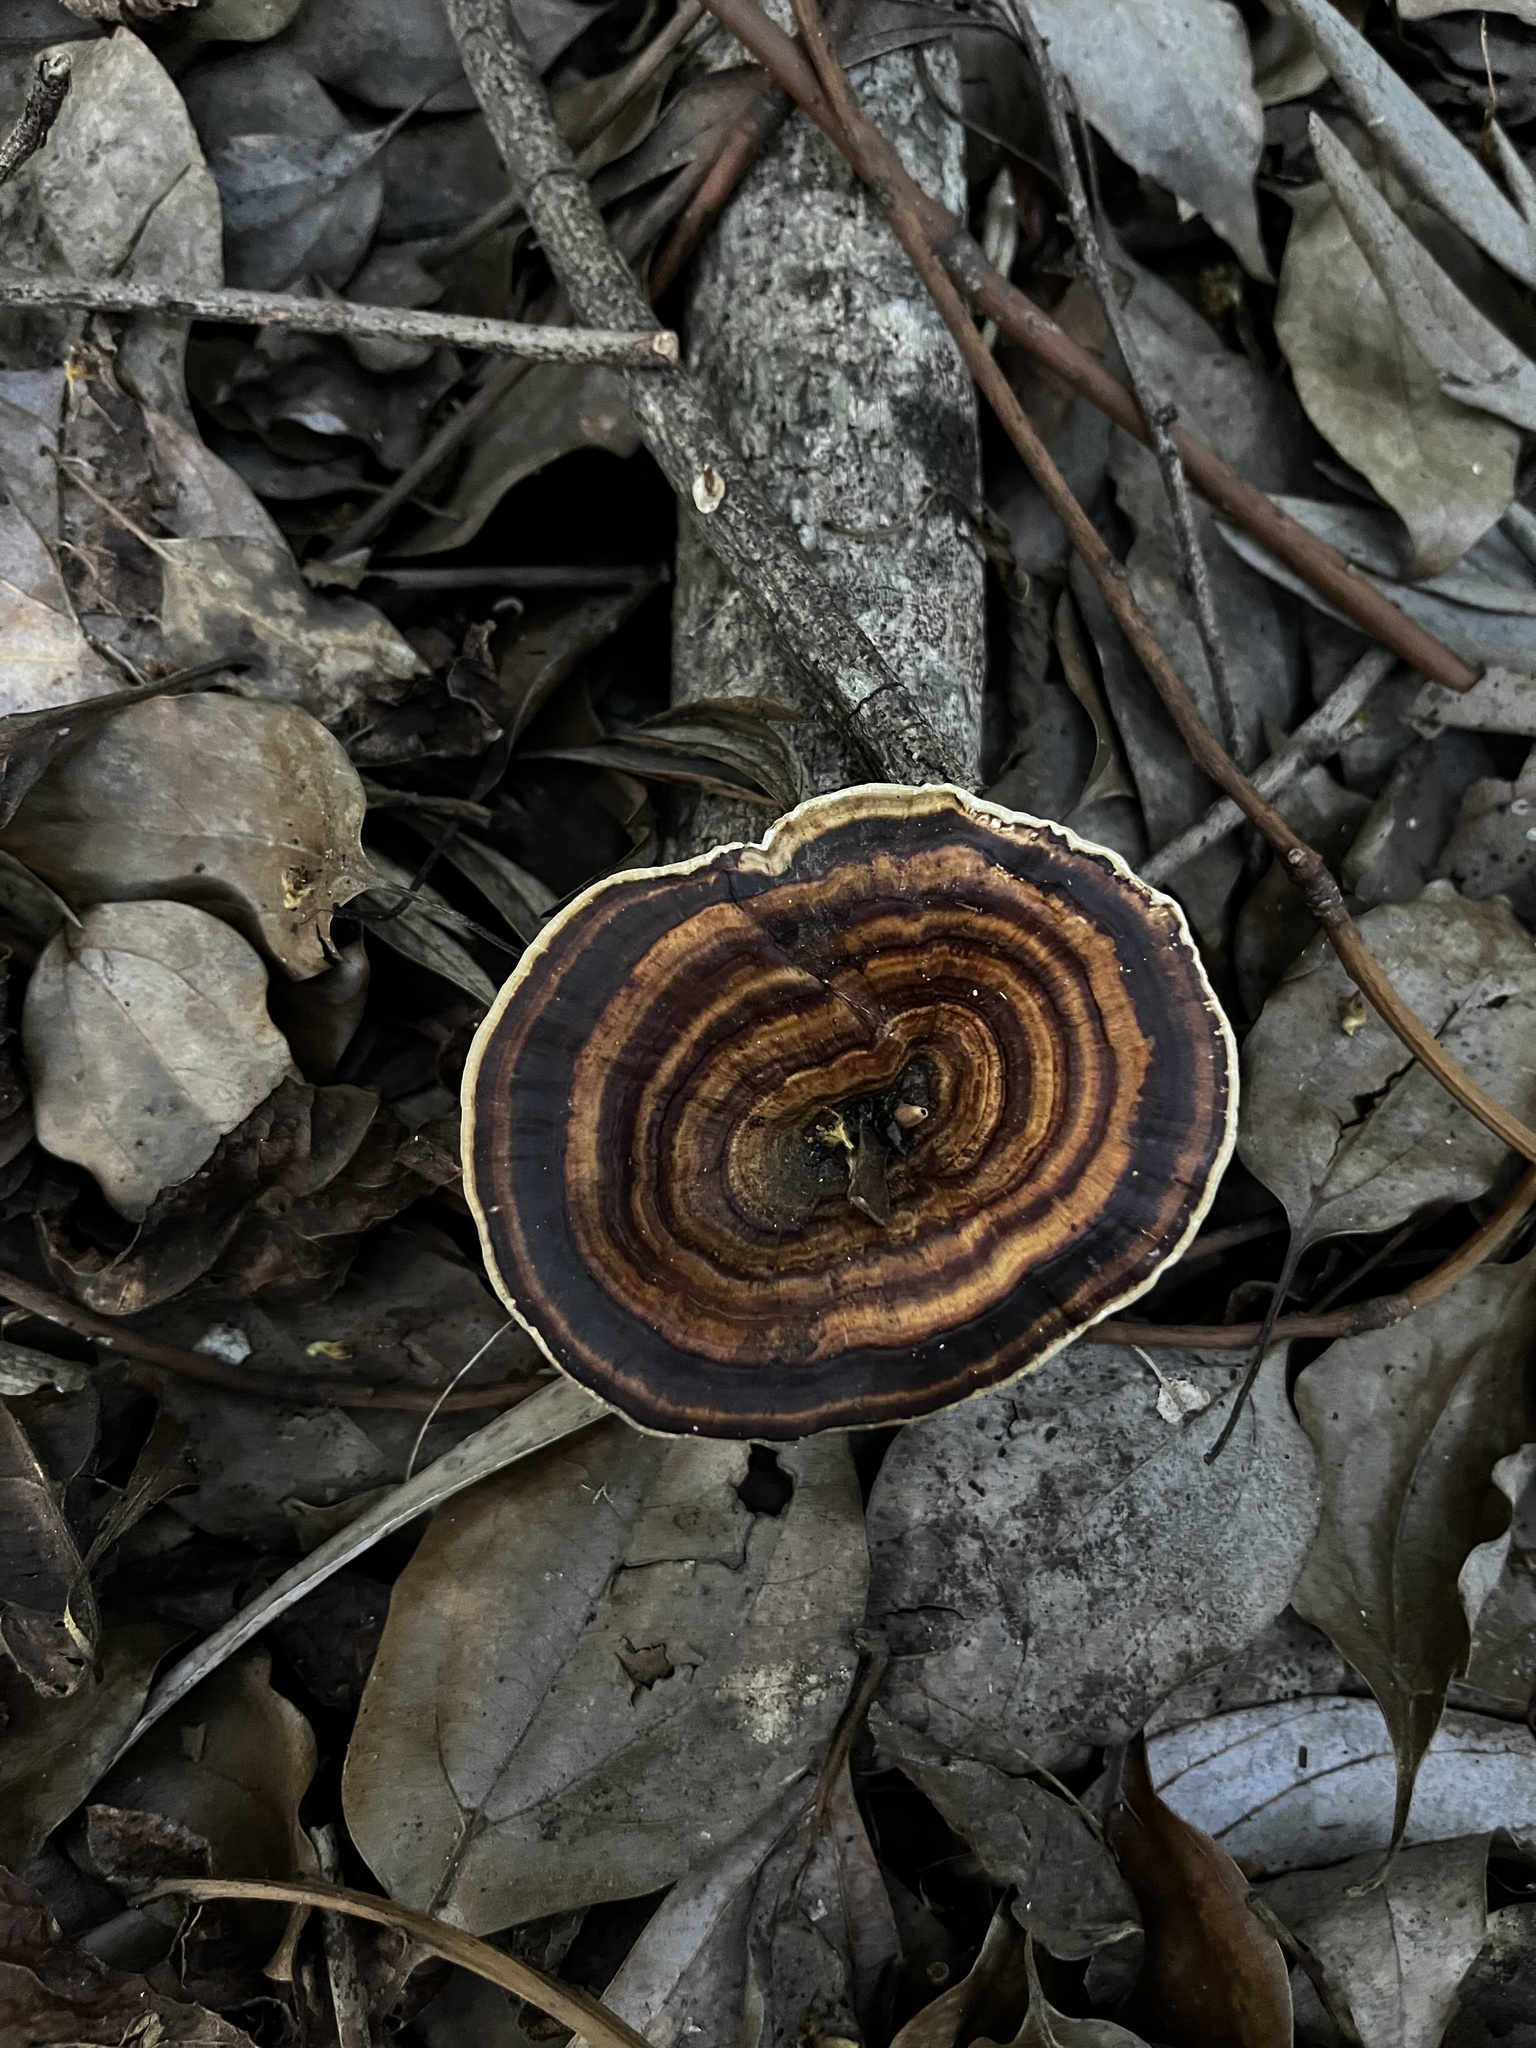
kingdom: Fungi
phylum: Basidiomycota
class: Agaricomycetes
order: Polyporales
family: Polyporaceae
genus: Microporus
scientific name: Microporus xanthopus
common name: Yellow-stemmed micropore
